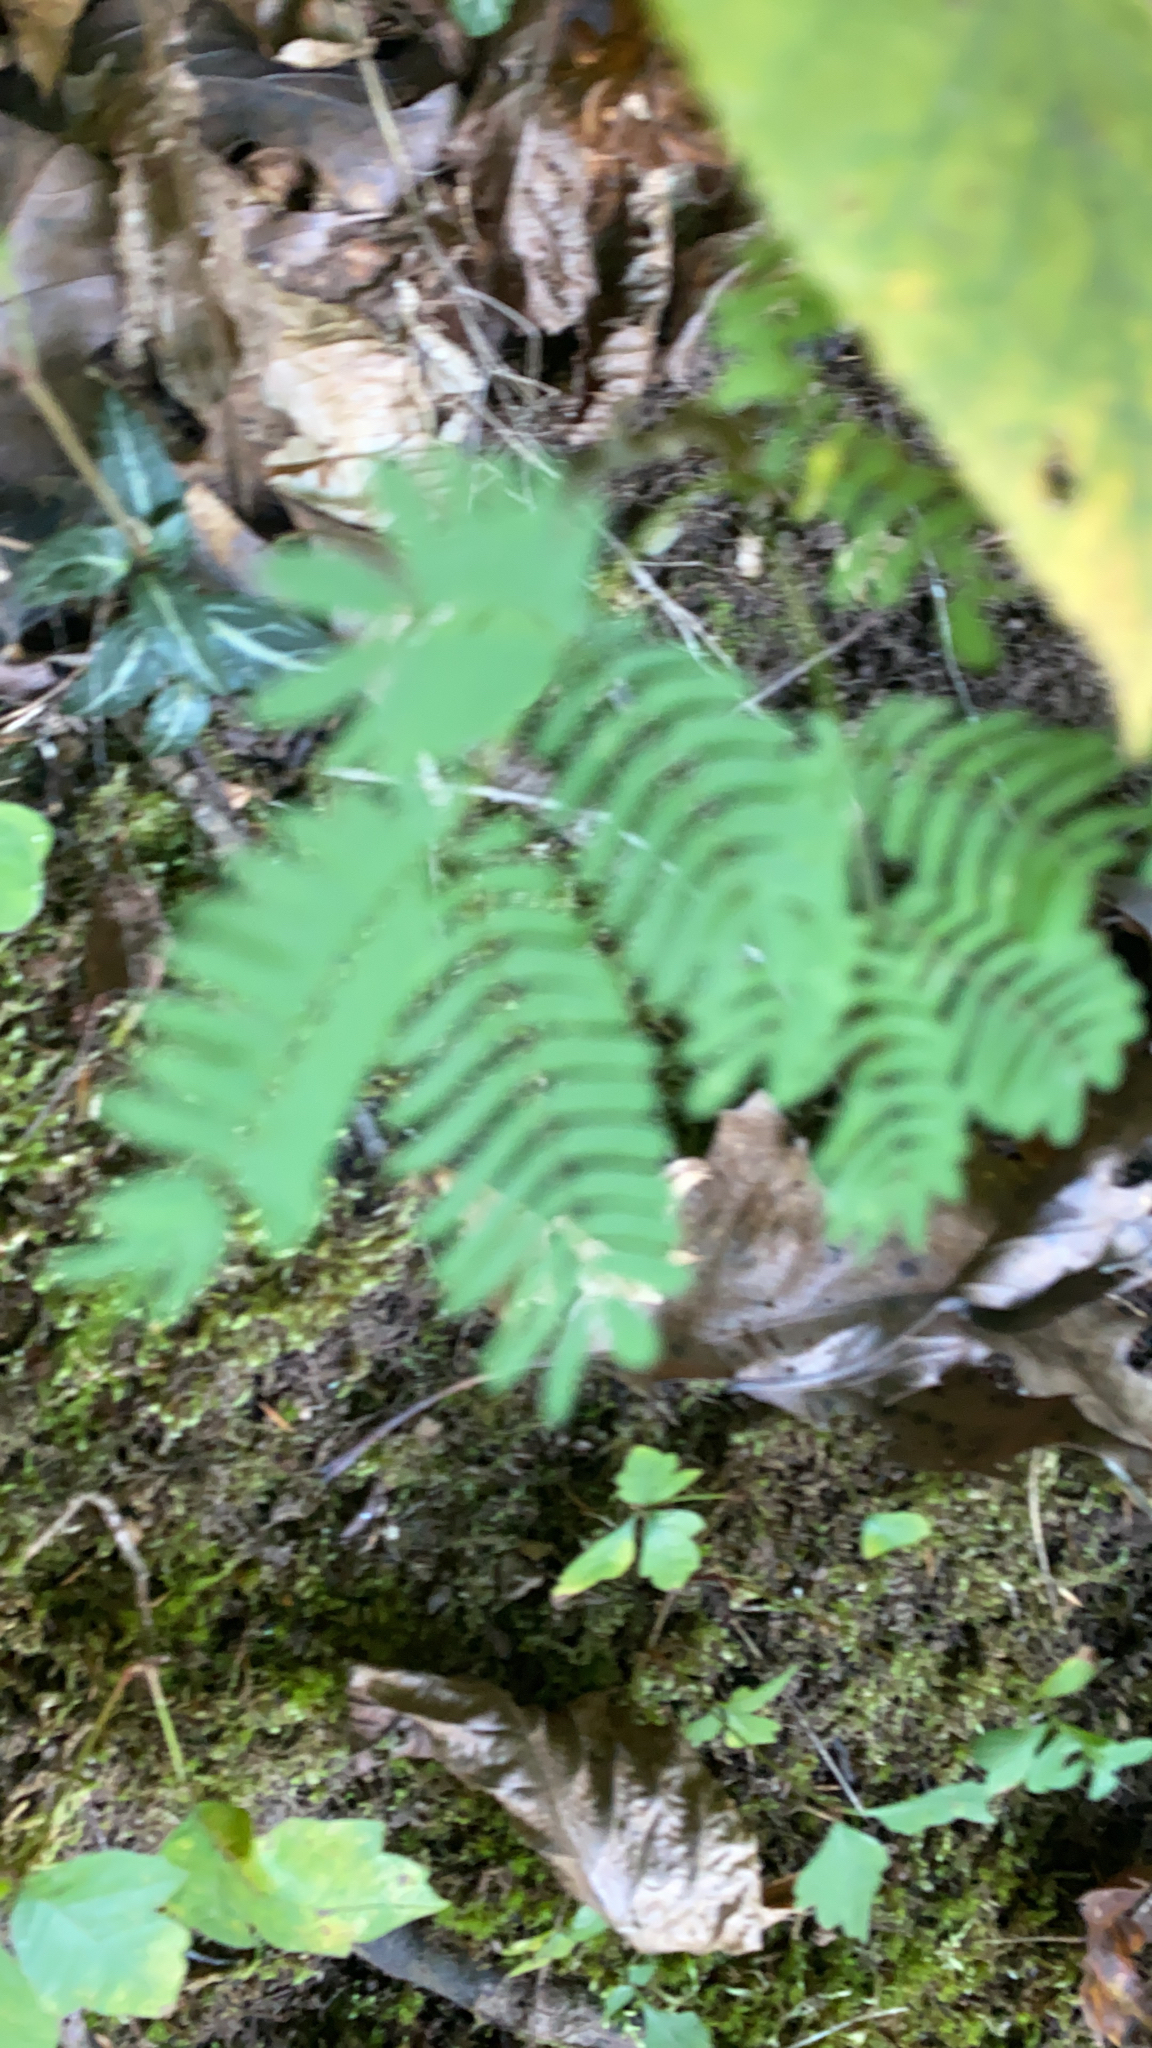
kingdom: Plantae
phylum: Tracheophyta
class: Magnoliopsida
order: Fabales
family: Fabaceae
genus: Albizia
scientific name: Albizia julibrissin
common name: Silktree
